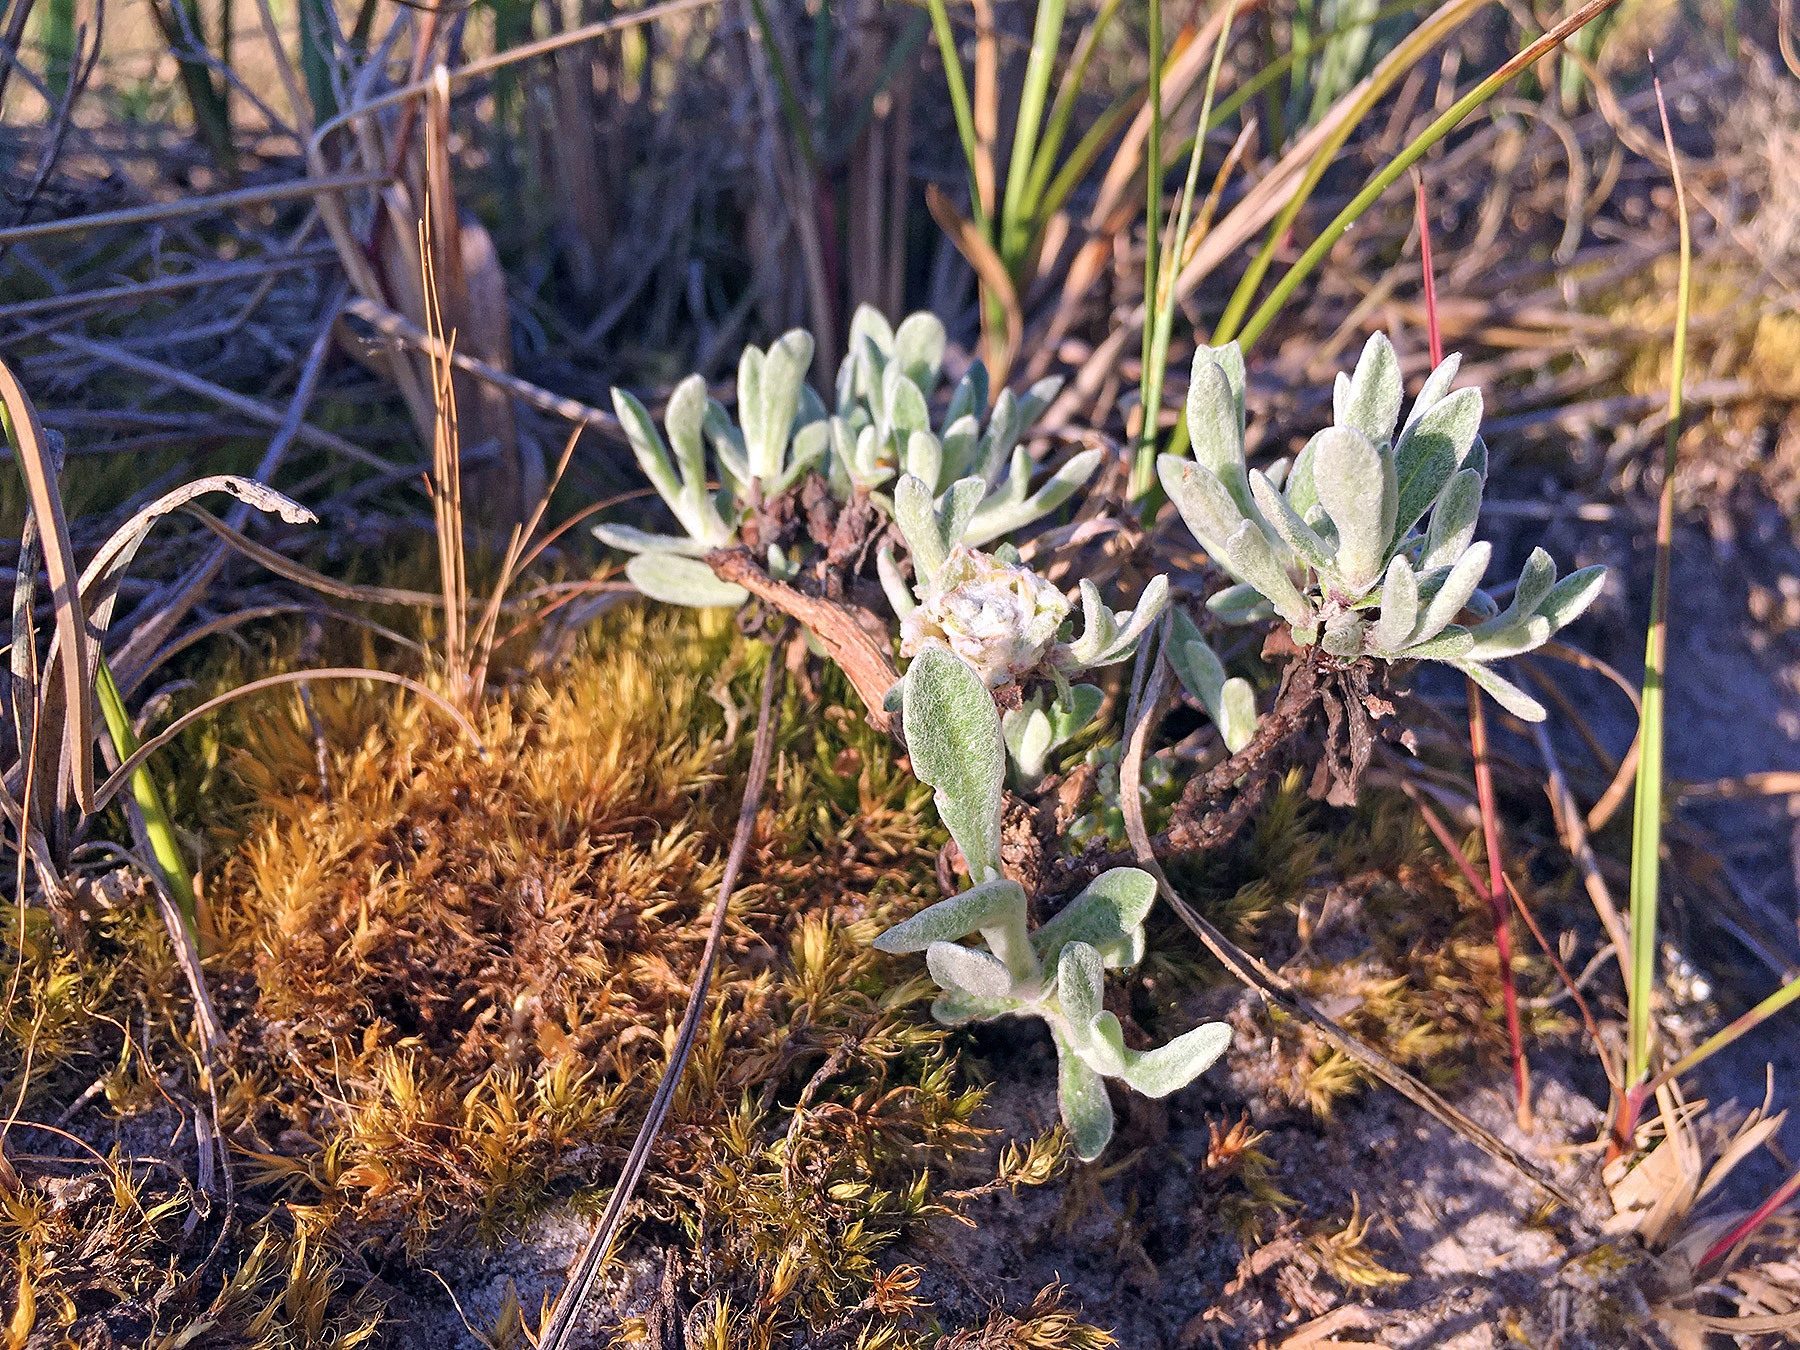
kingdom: Plantae
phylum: Tracheophyta
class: Magnoliopsida
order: Asterales
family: Asteraceae
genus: Helichrysum
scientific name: Helichrysum arenarium
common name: Strawflower
